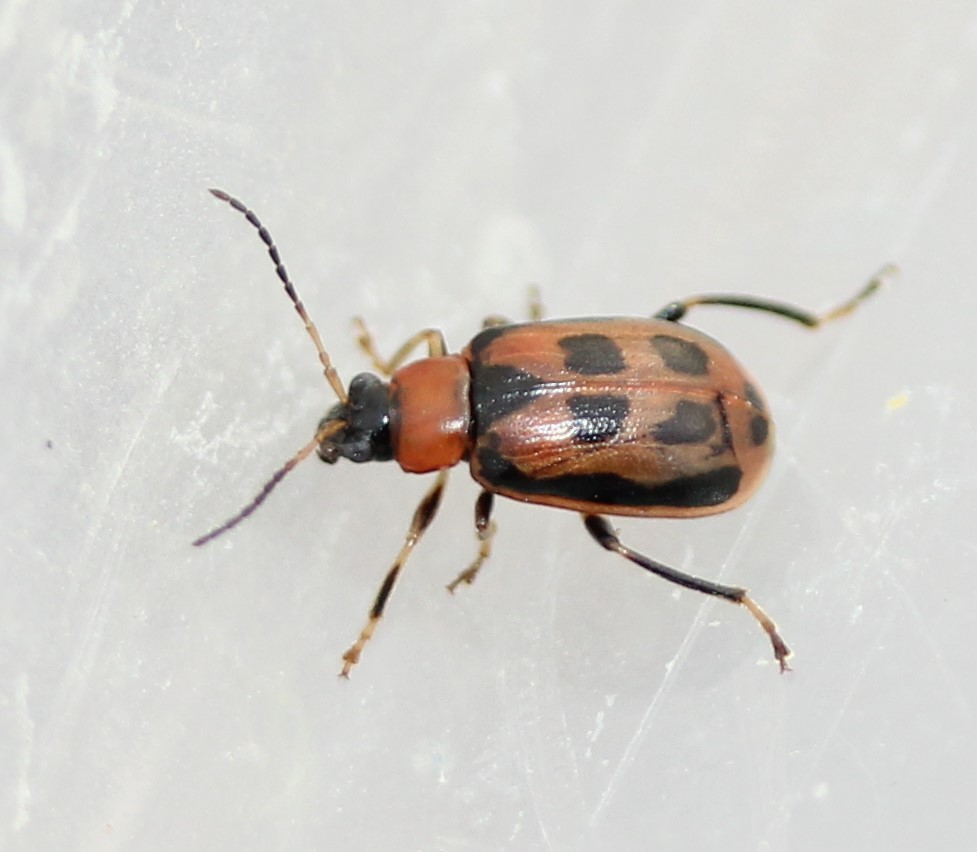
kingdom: Animalia
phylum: Arthropoda
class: Insecta
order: Coleoptera
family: Chrysomelidae
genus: Cerotoma
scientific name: Cerotoma trifurcata
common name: Bean leaf beetle
